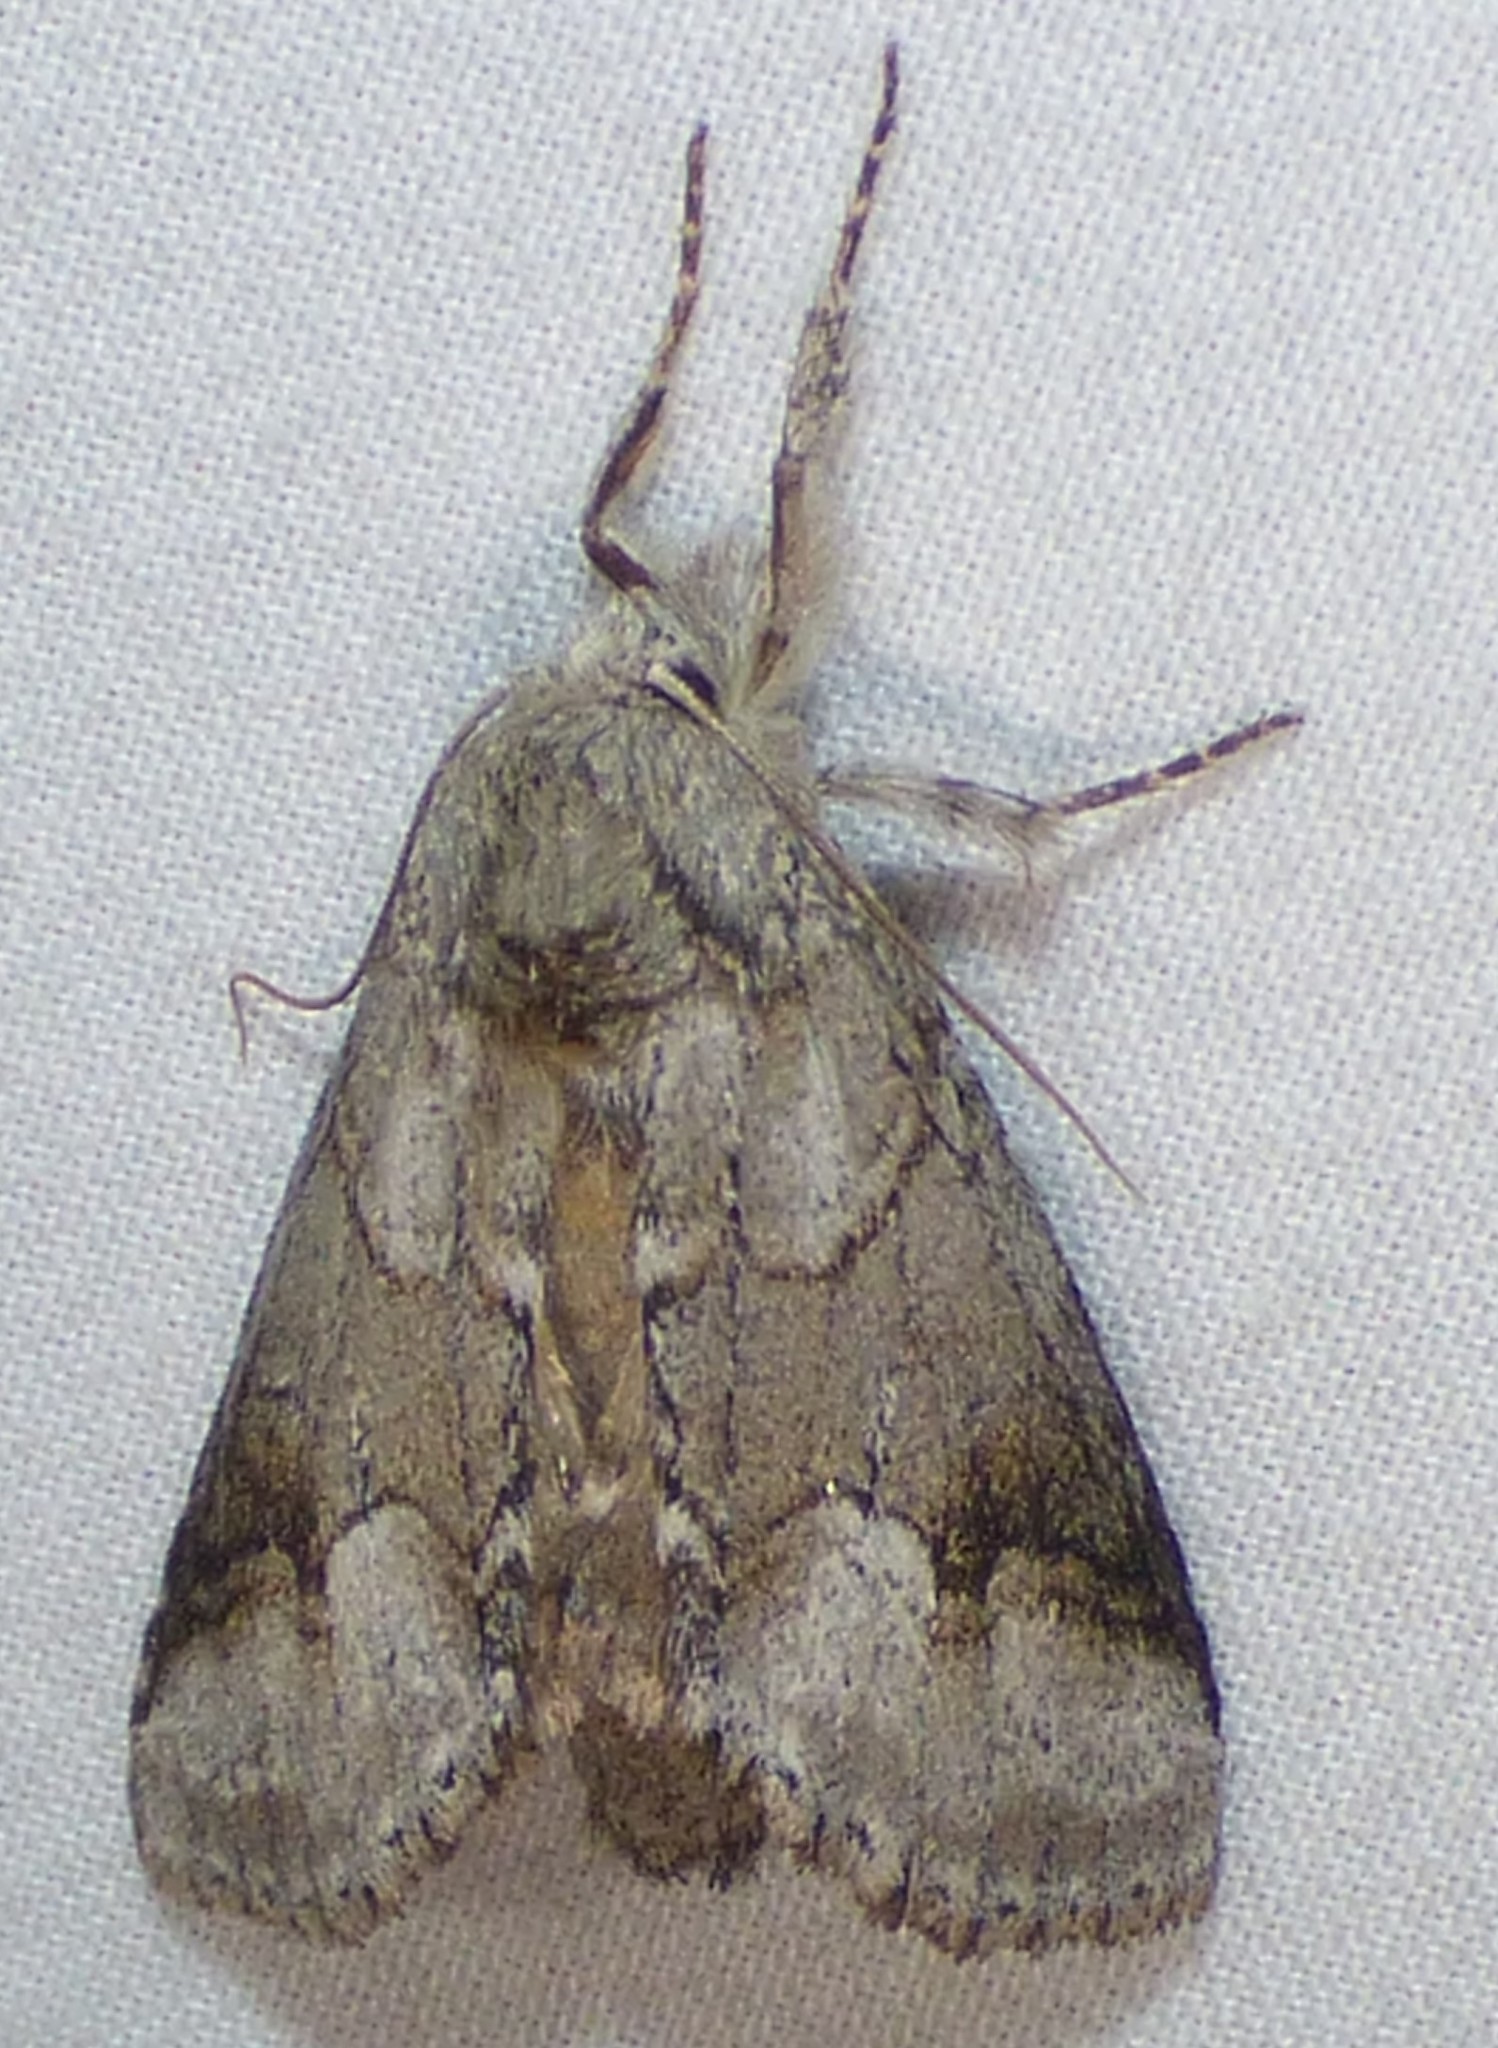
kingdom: Animalia
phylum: Arthropoda
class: Insecta
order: Lepidoptera
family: Notodontidae
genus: Lochmaeus
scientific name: Lochmaeus bilineata
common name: Double-lined prominent
